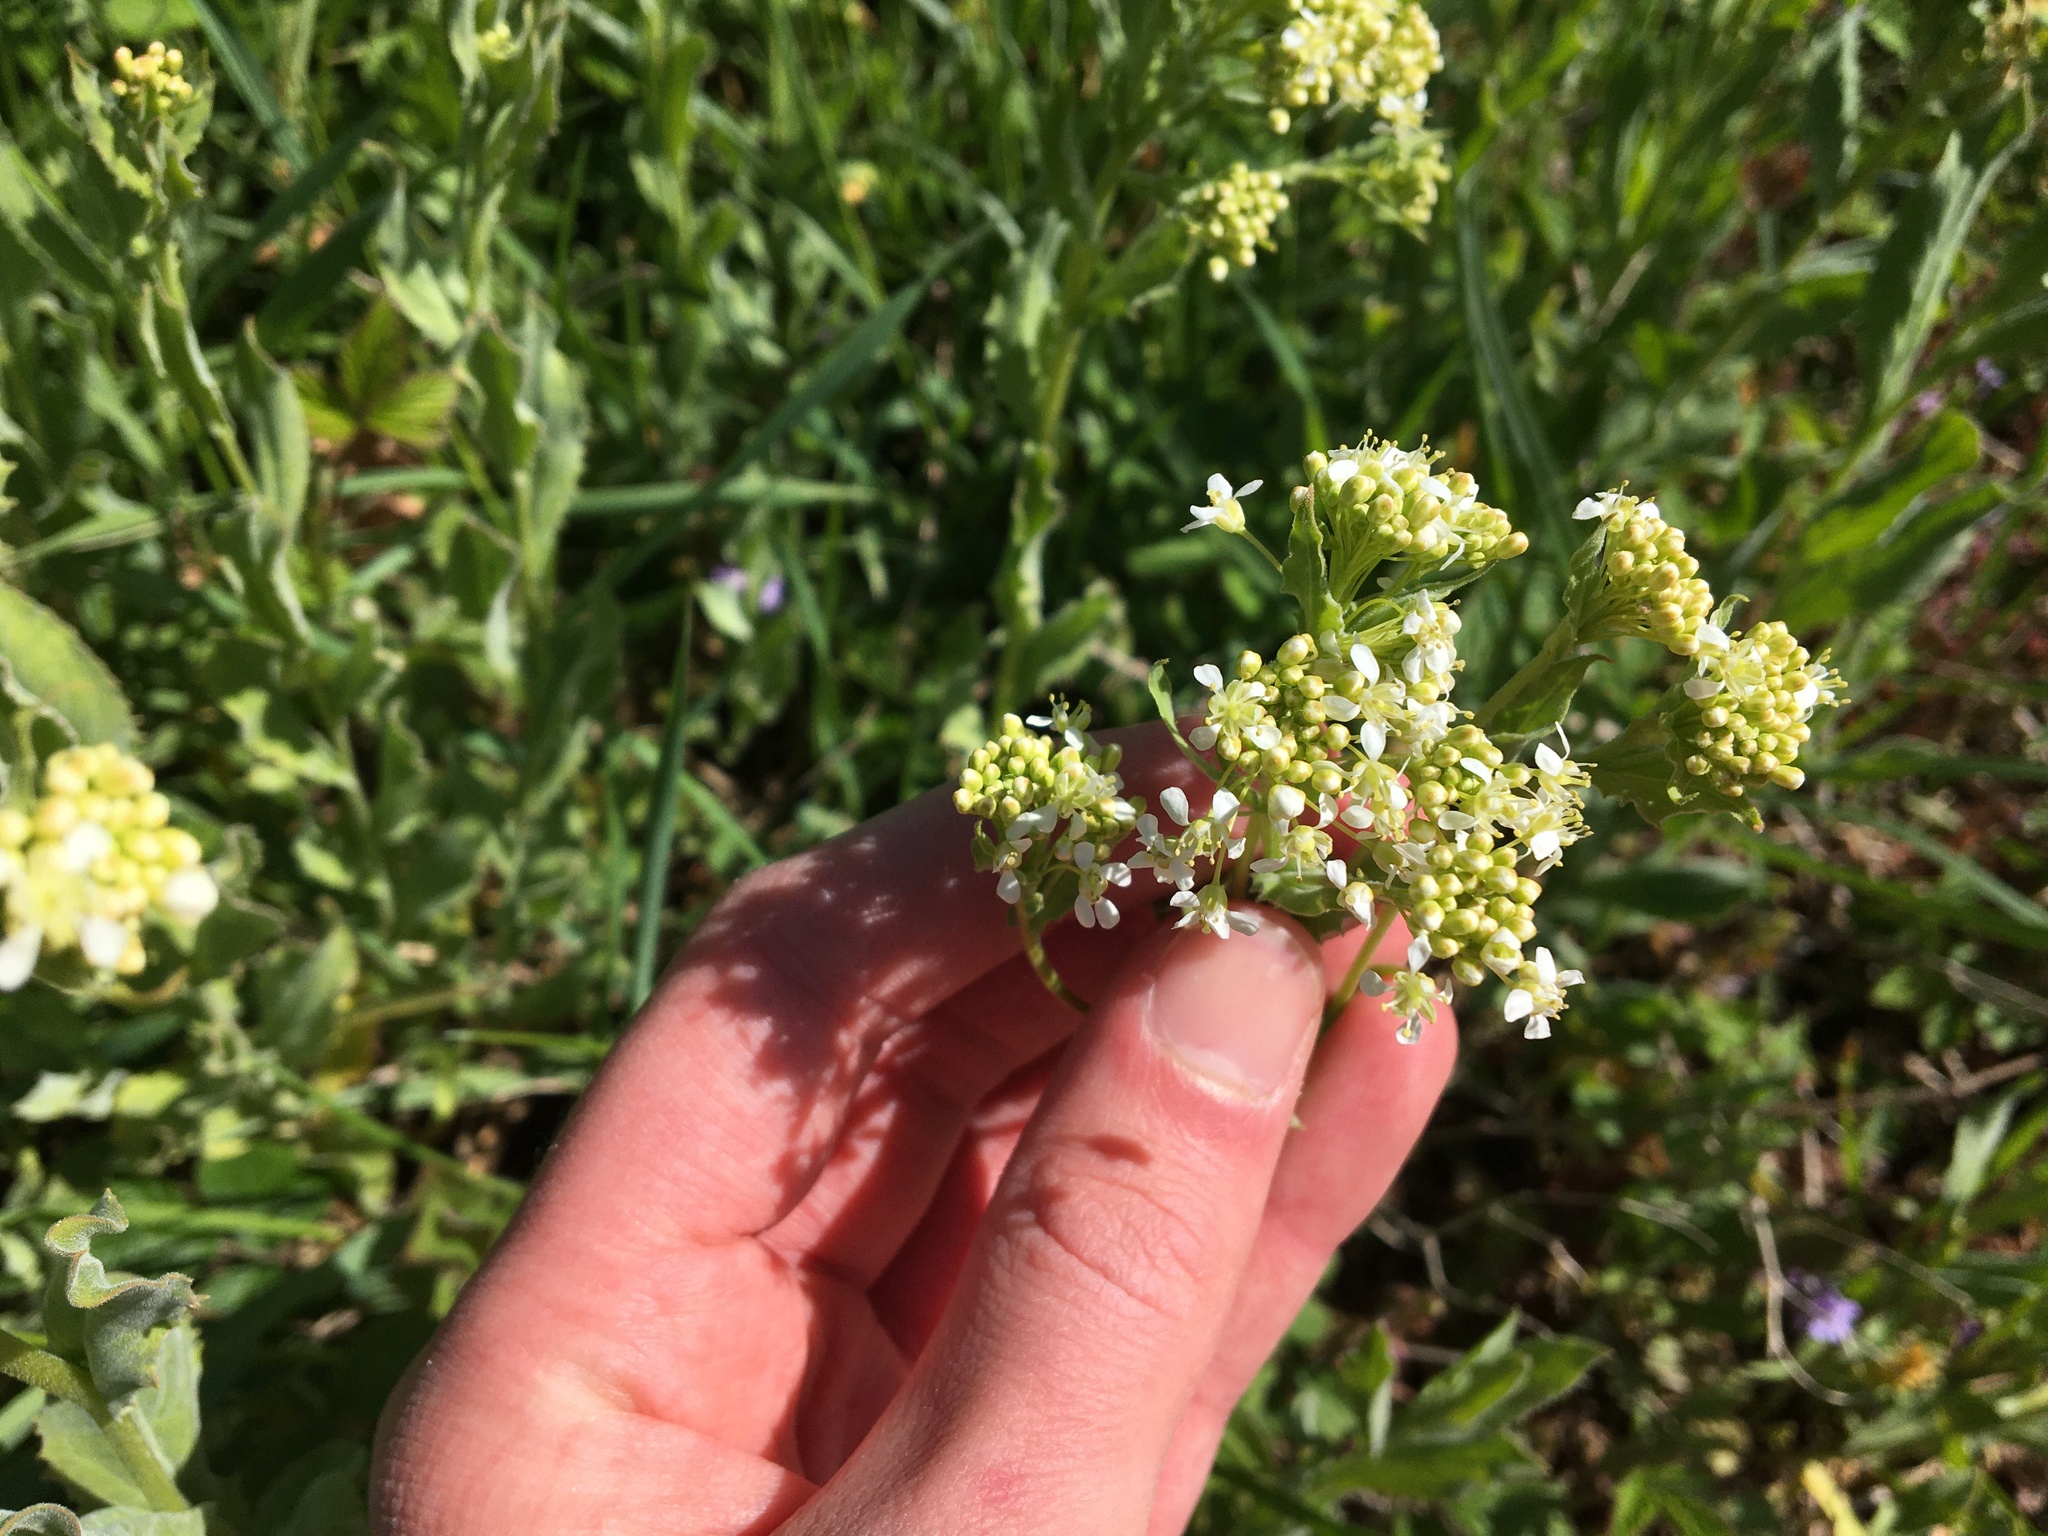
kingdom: Plantae
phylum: Tracheophyta
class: Magnoliopsida
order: Brassicales
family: Brassicaceae
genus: Lepidium
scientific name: Lepidium draba
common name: Hoary cress
